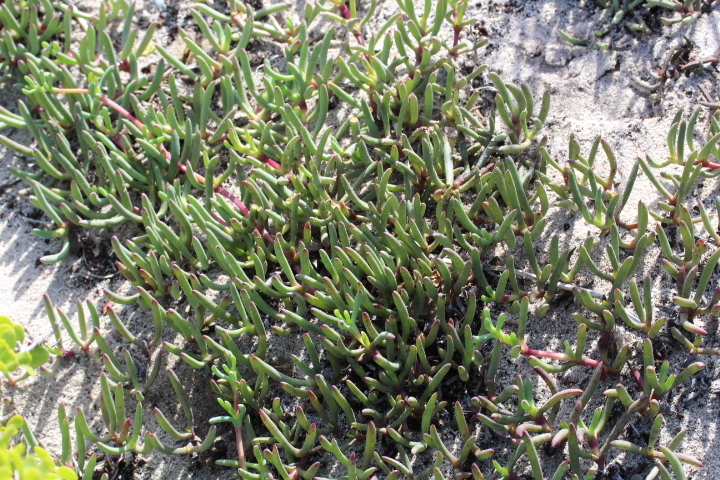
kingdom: Plantae
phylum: Tracheophyta
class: Magnoliopsida
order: Caryophyllales
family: Aizoaceae
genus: Jordaaniella
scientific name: Jordaaniella dubia
